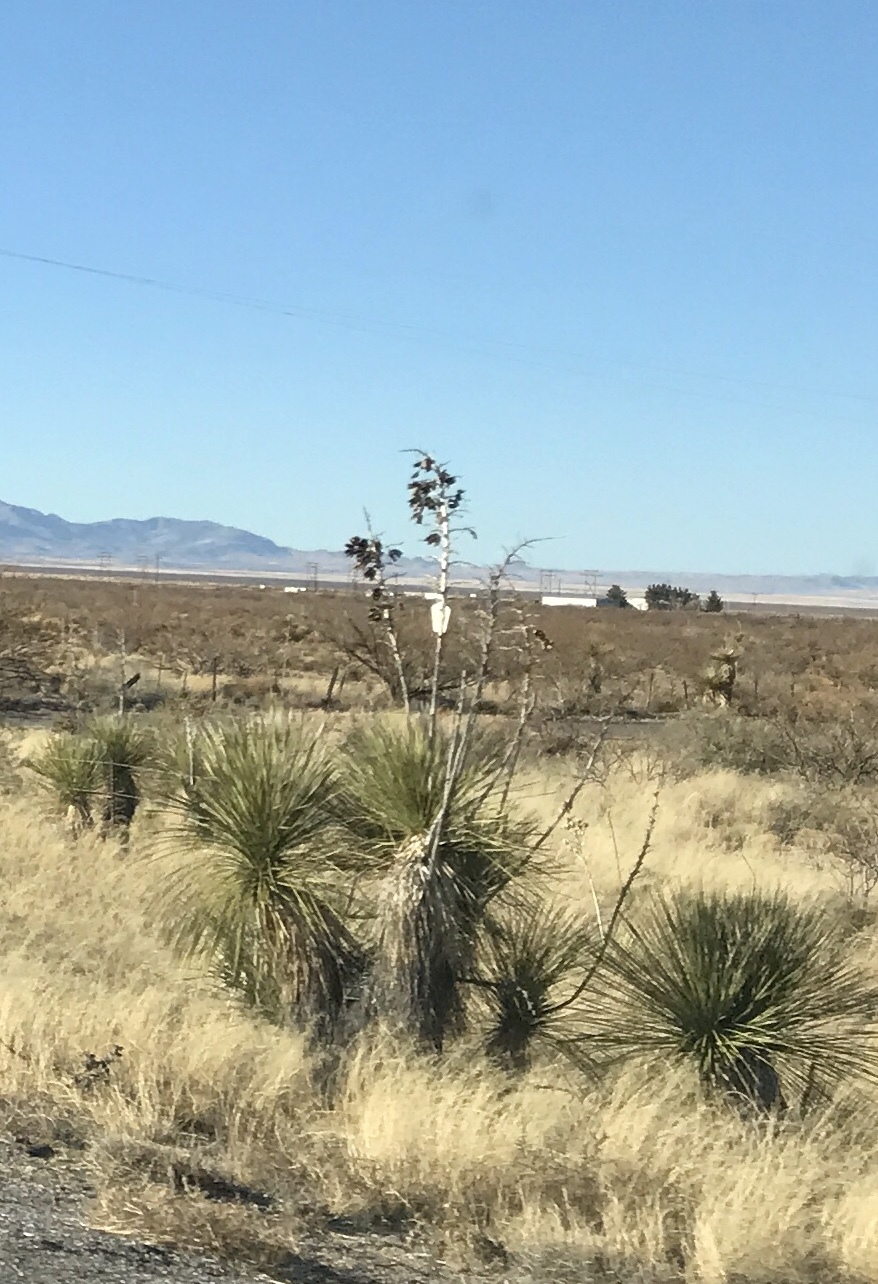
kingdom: Plantae
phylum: Tracheophyta
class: Liliopsida
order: Asparagales
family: Asparagaceae
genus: Yucca
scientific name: Yucca elata
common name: Palmella
